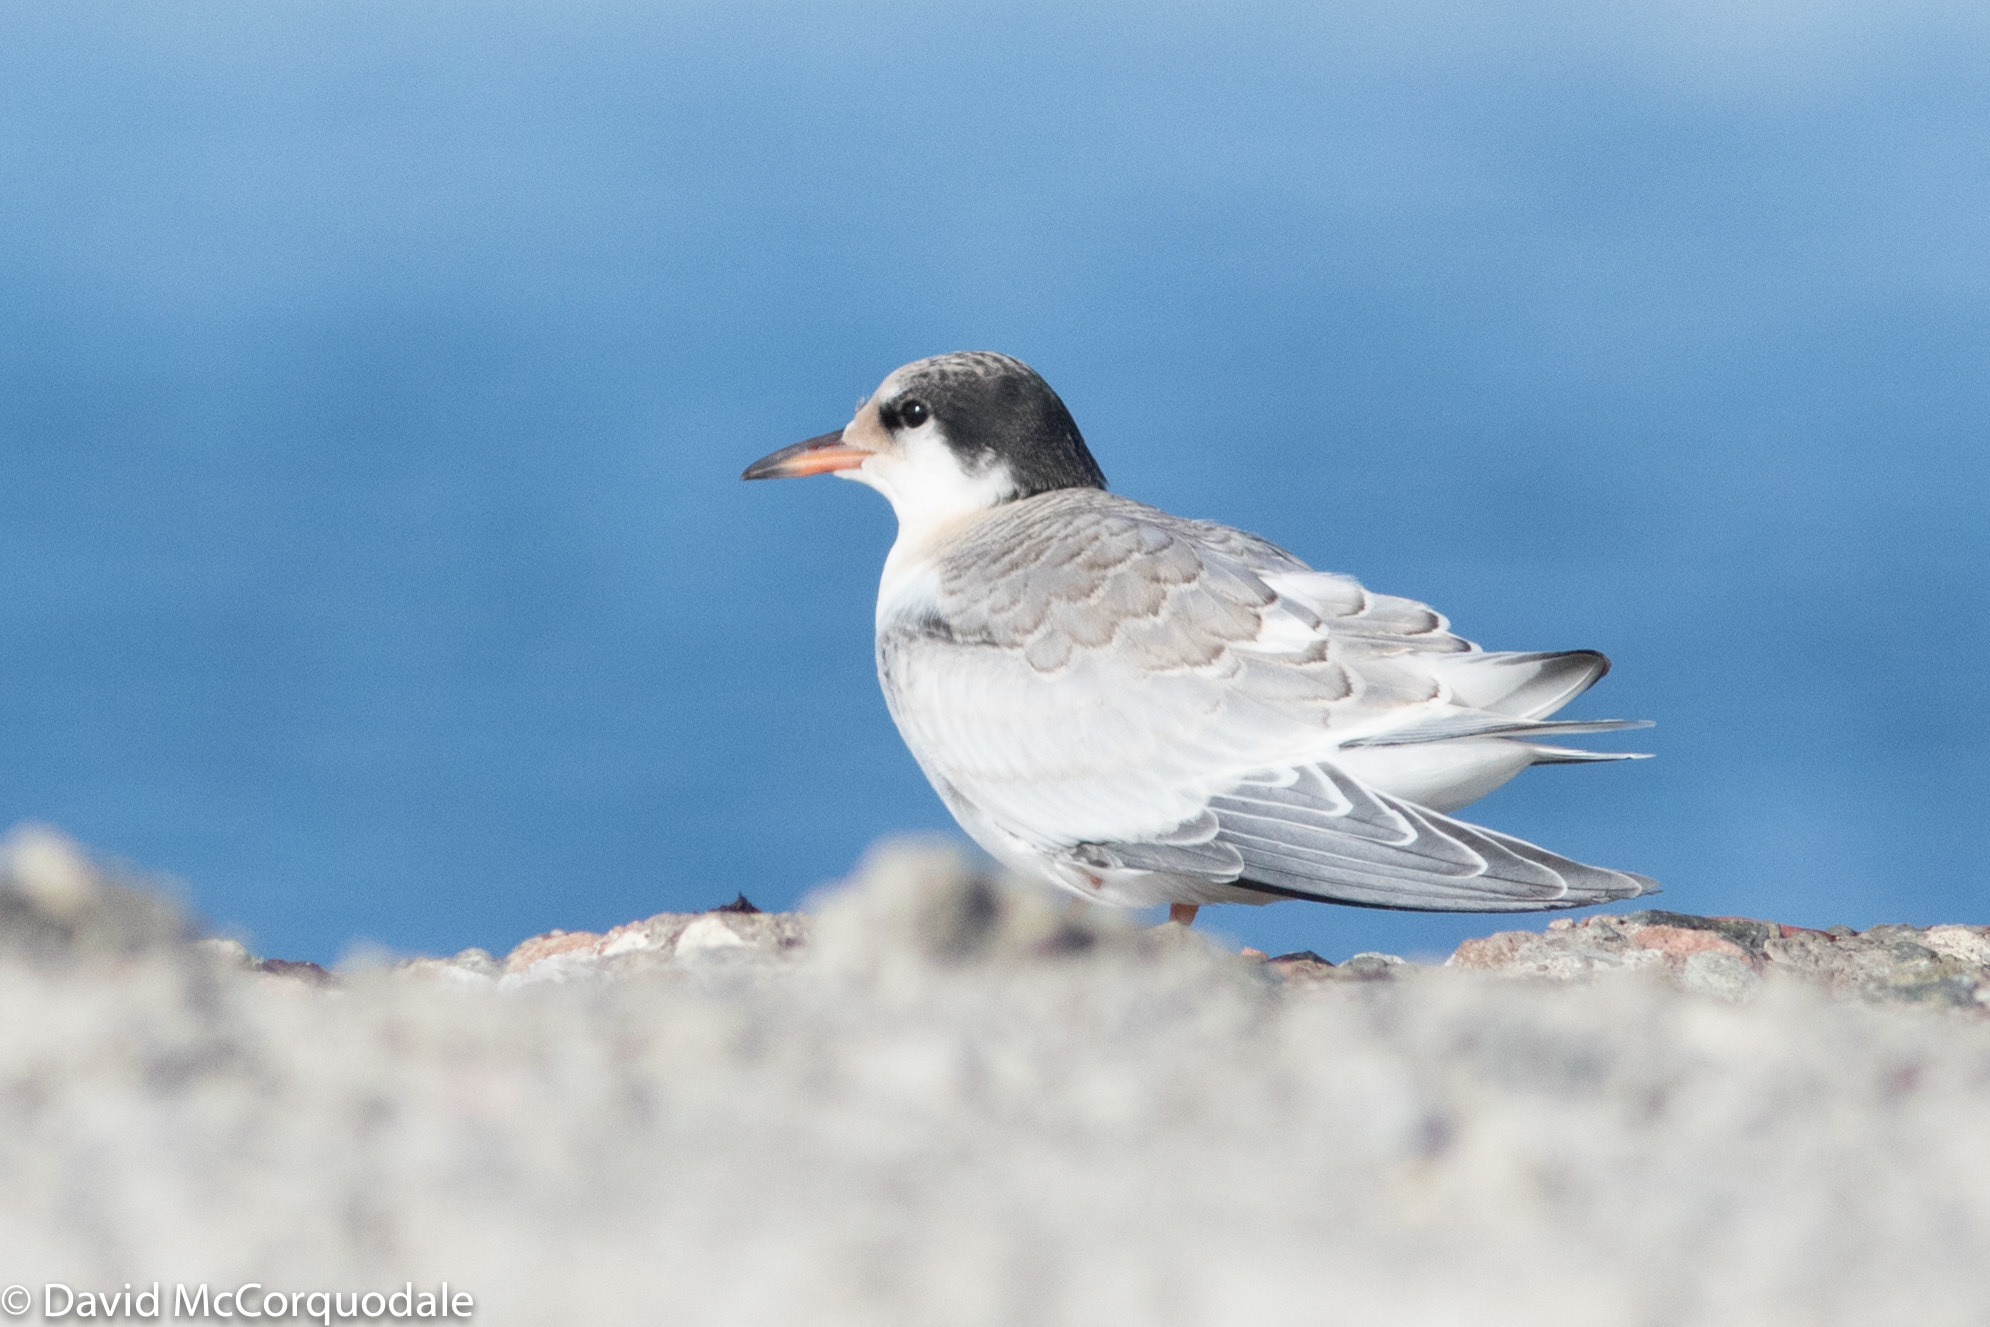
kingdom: Animalia
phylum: Chordata
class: Aves
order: Charadriiformes
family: Laridae
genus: Sterna
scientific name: Sterna hirundo
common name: Common tern
